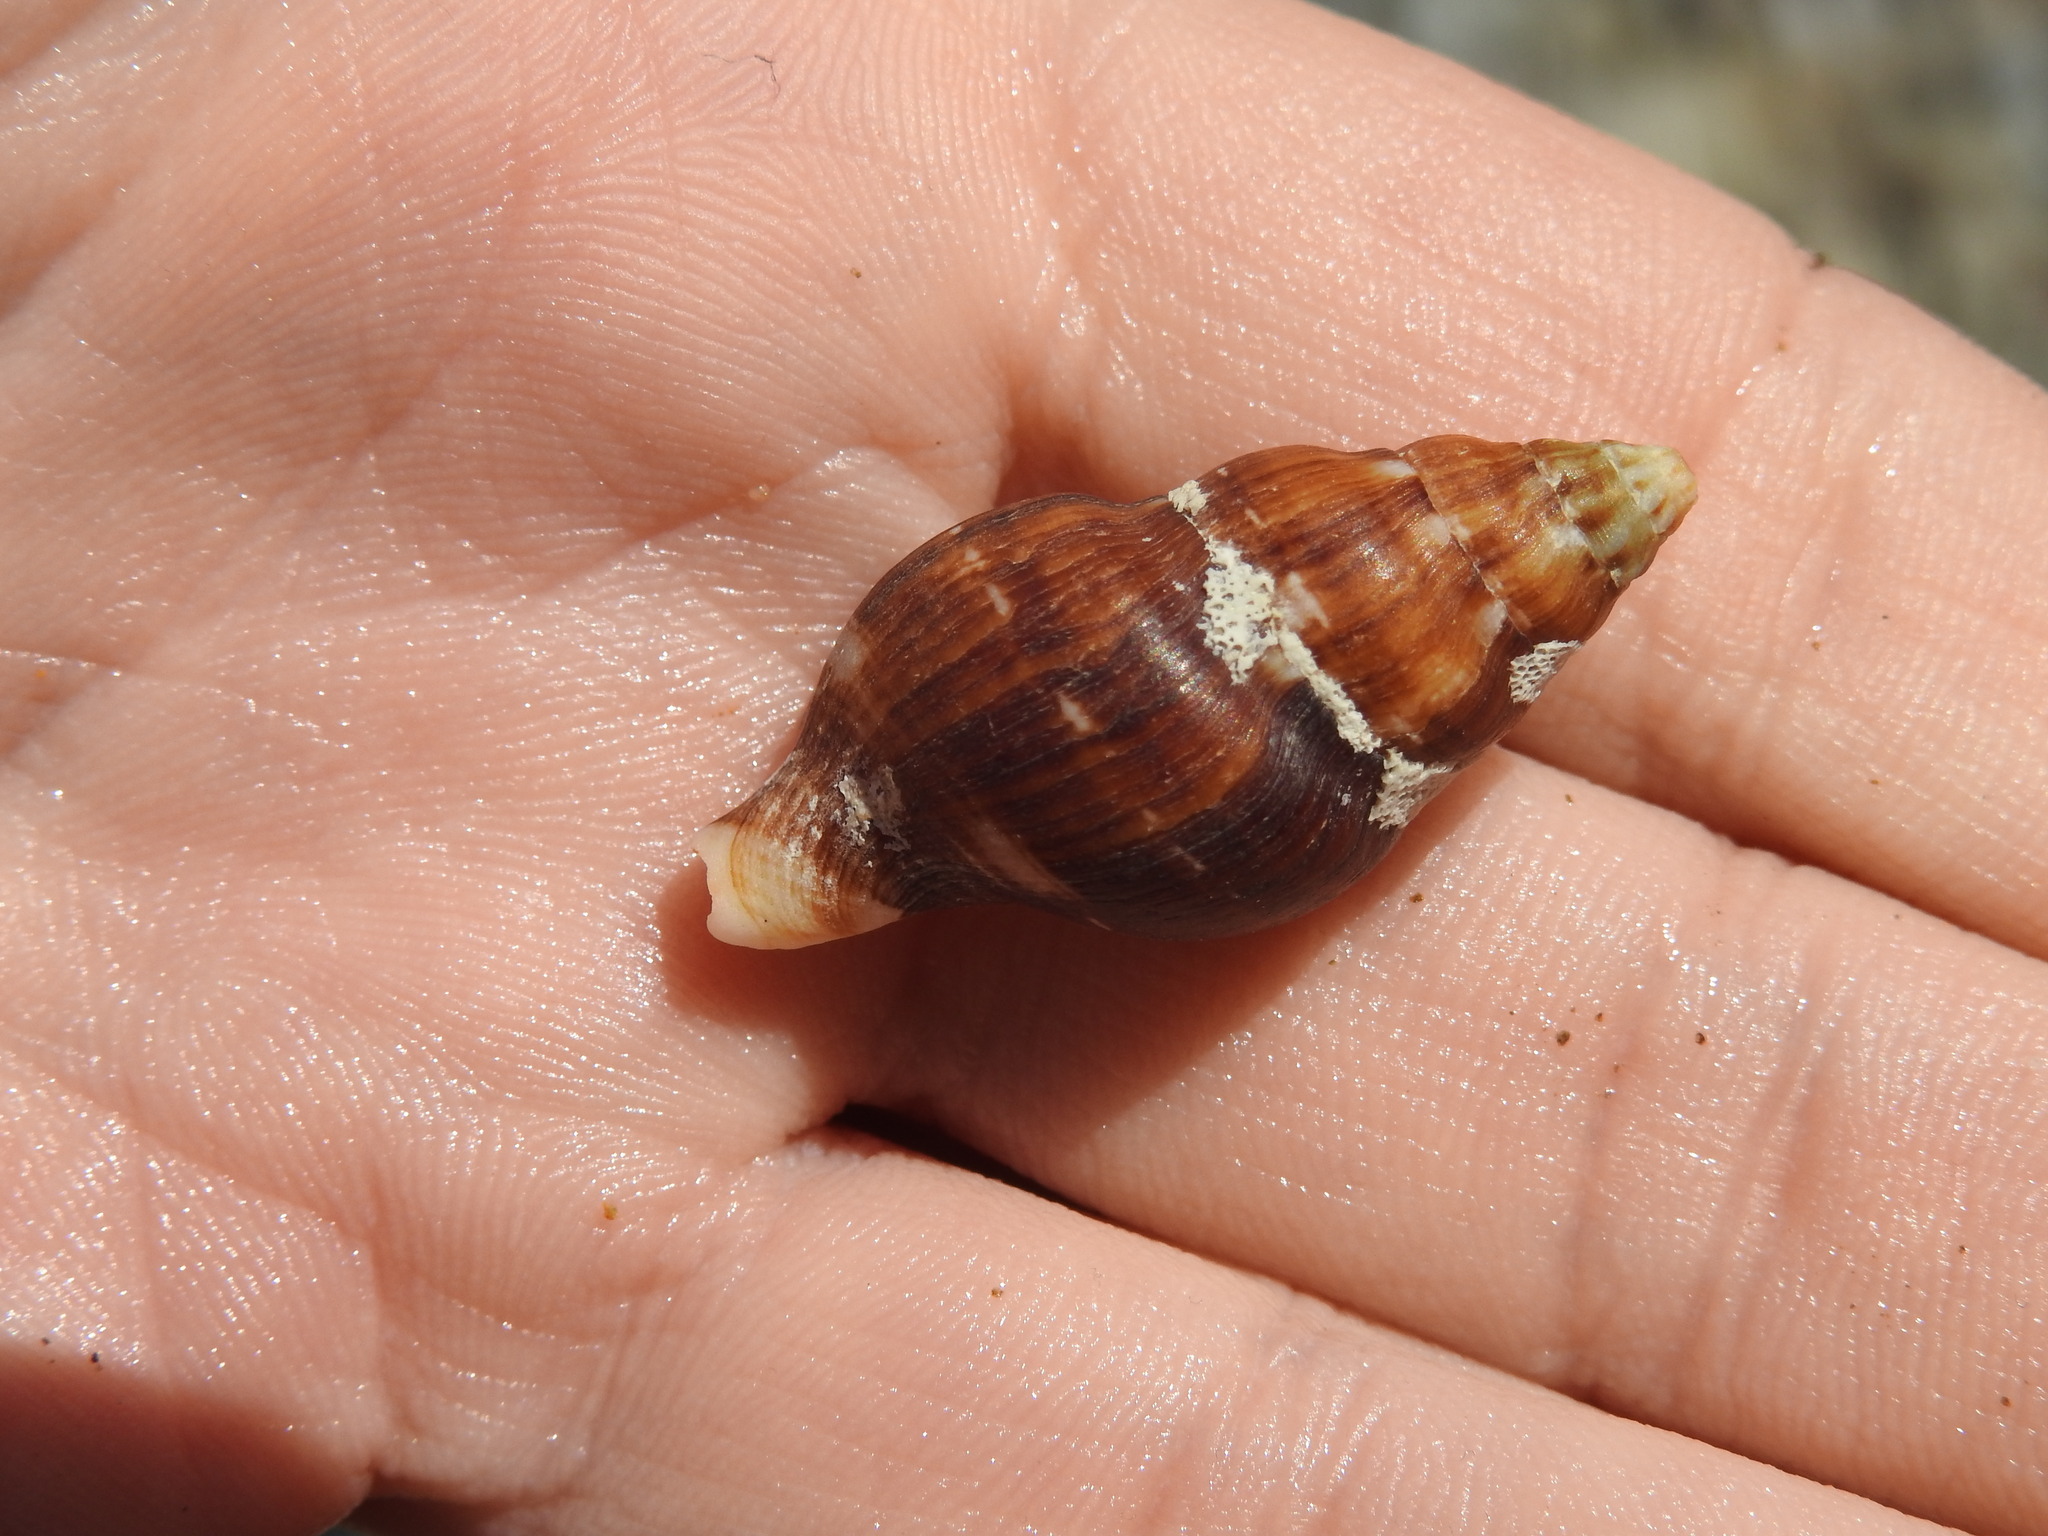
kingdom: Animalia
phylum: Mollusca
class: Gastropoda
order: Neogastropoda
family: Tudiclidae
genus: Euthria
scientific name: Euthria cornea
